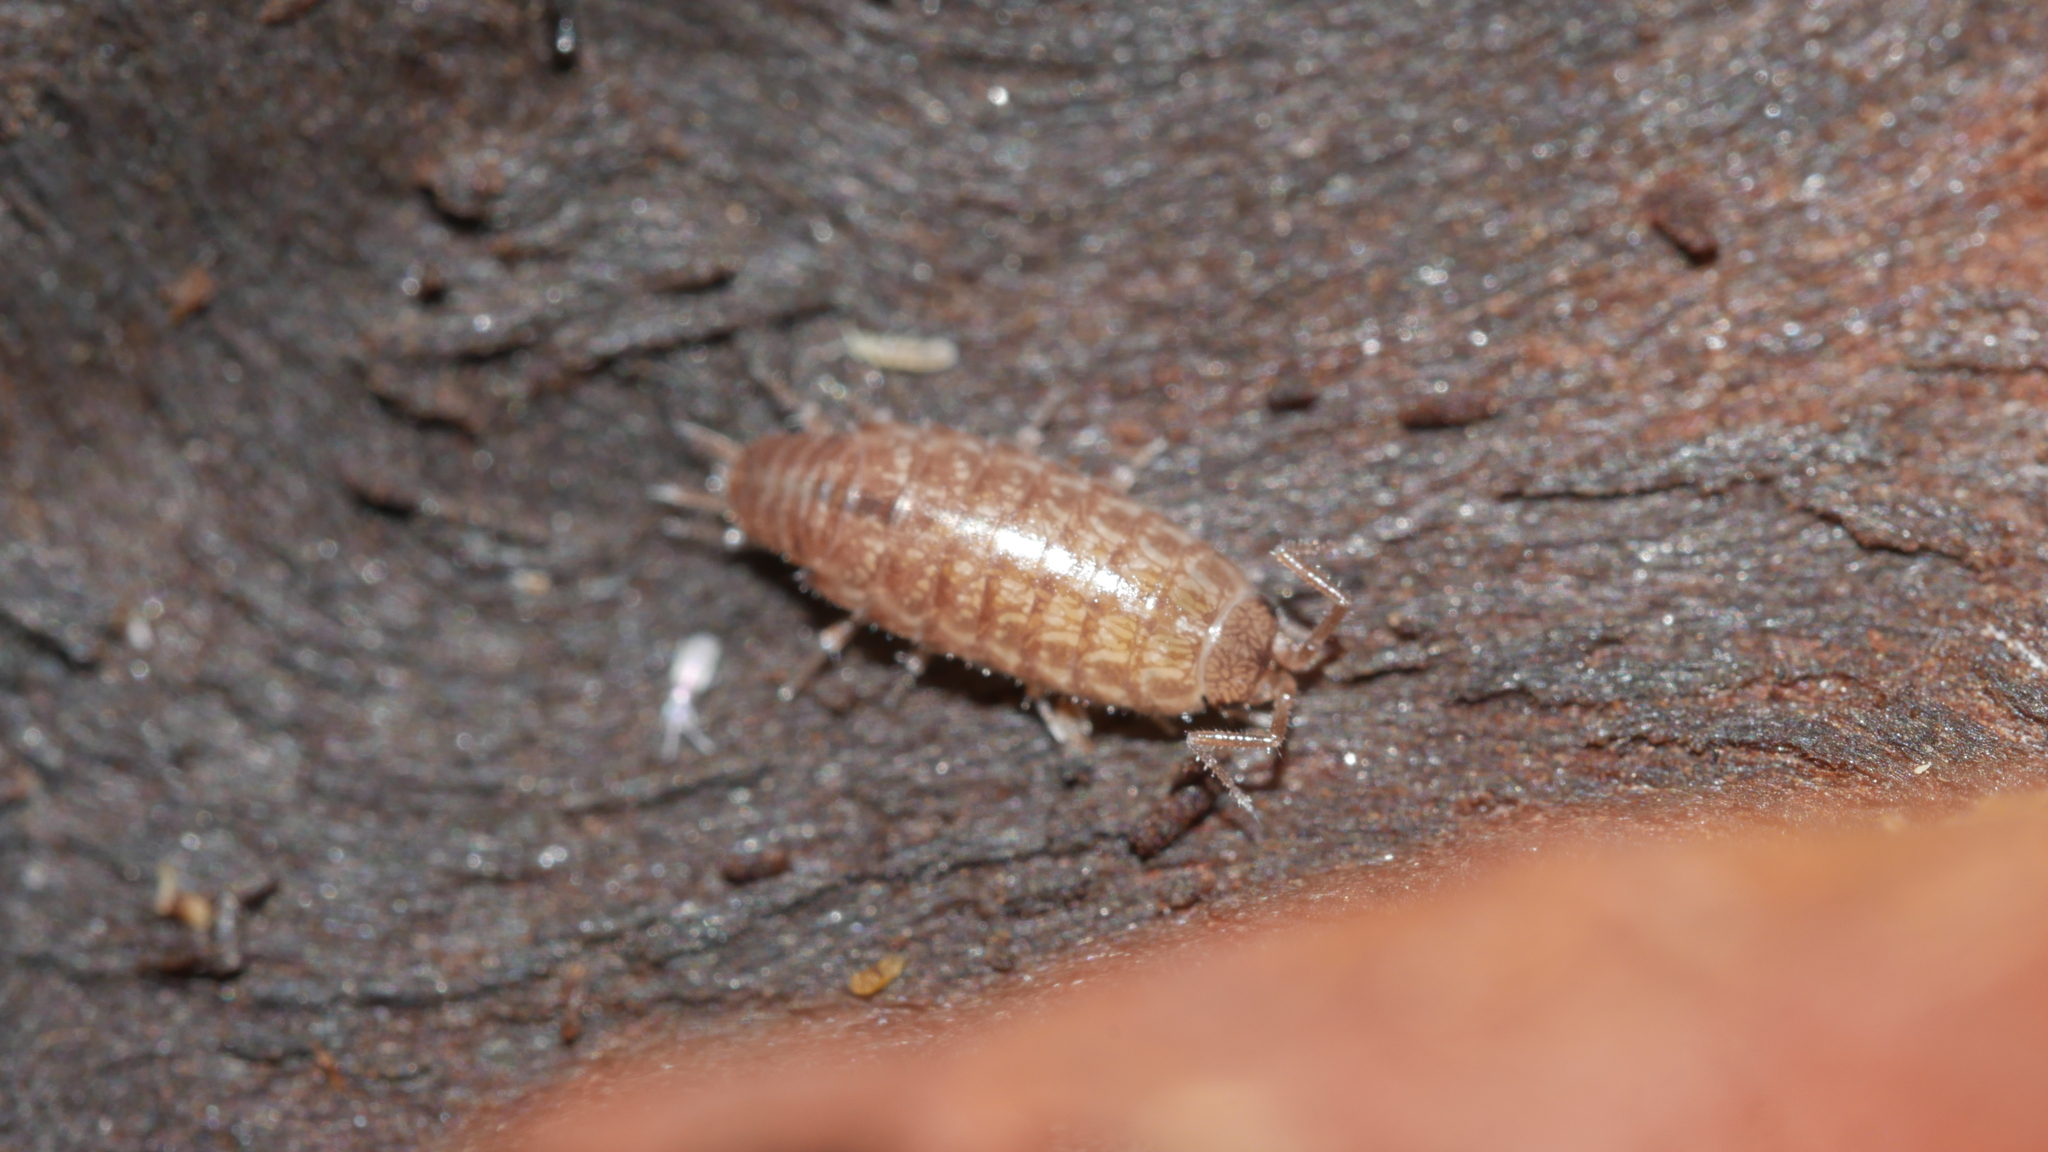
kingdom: Animalia
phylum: Arthropoda
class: Malacostraca
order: Isopoda
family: Philosciidae
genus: Chaetophiloscia
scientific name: Chaetophiloscia sicula
